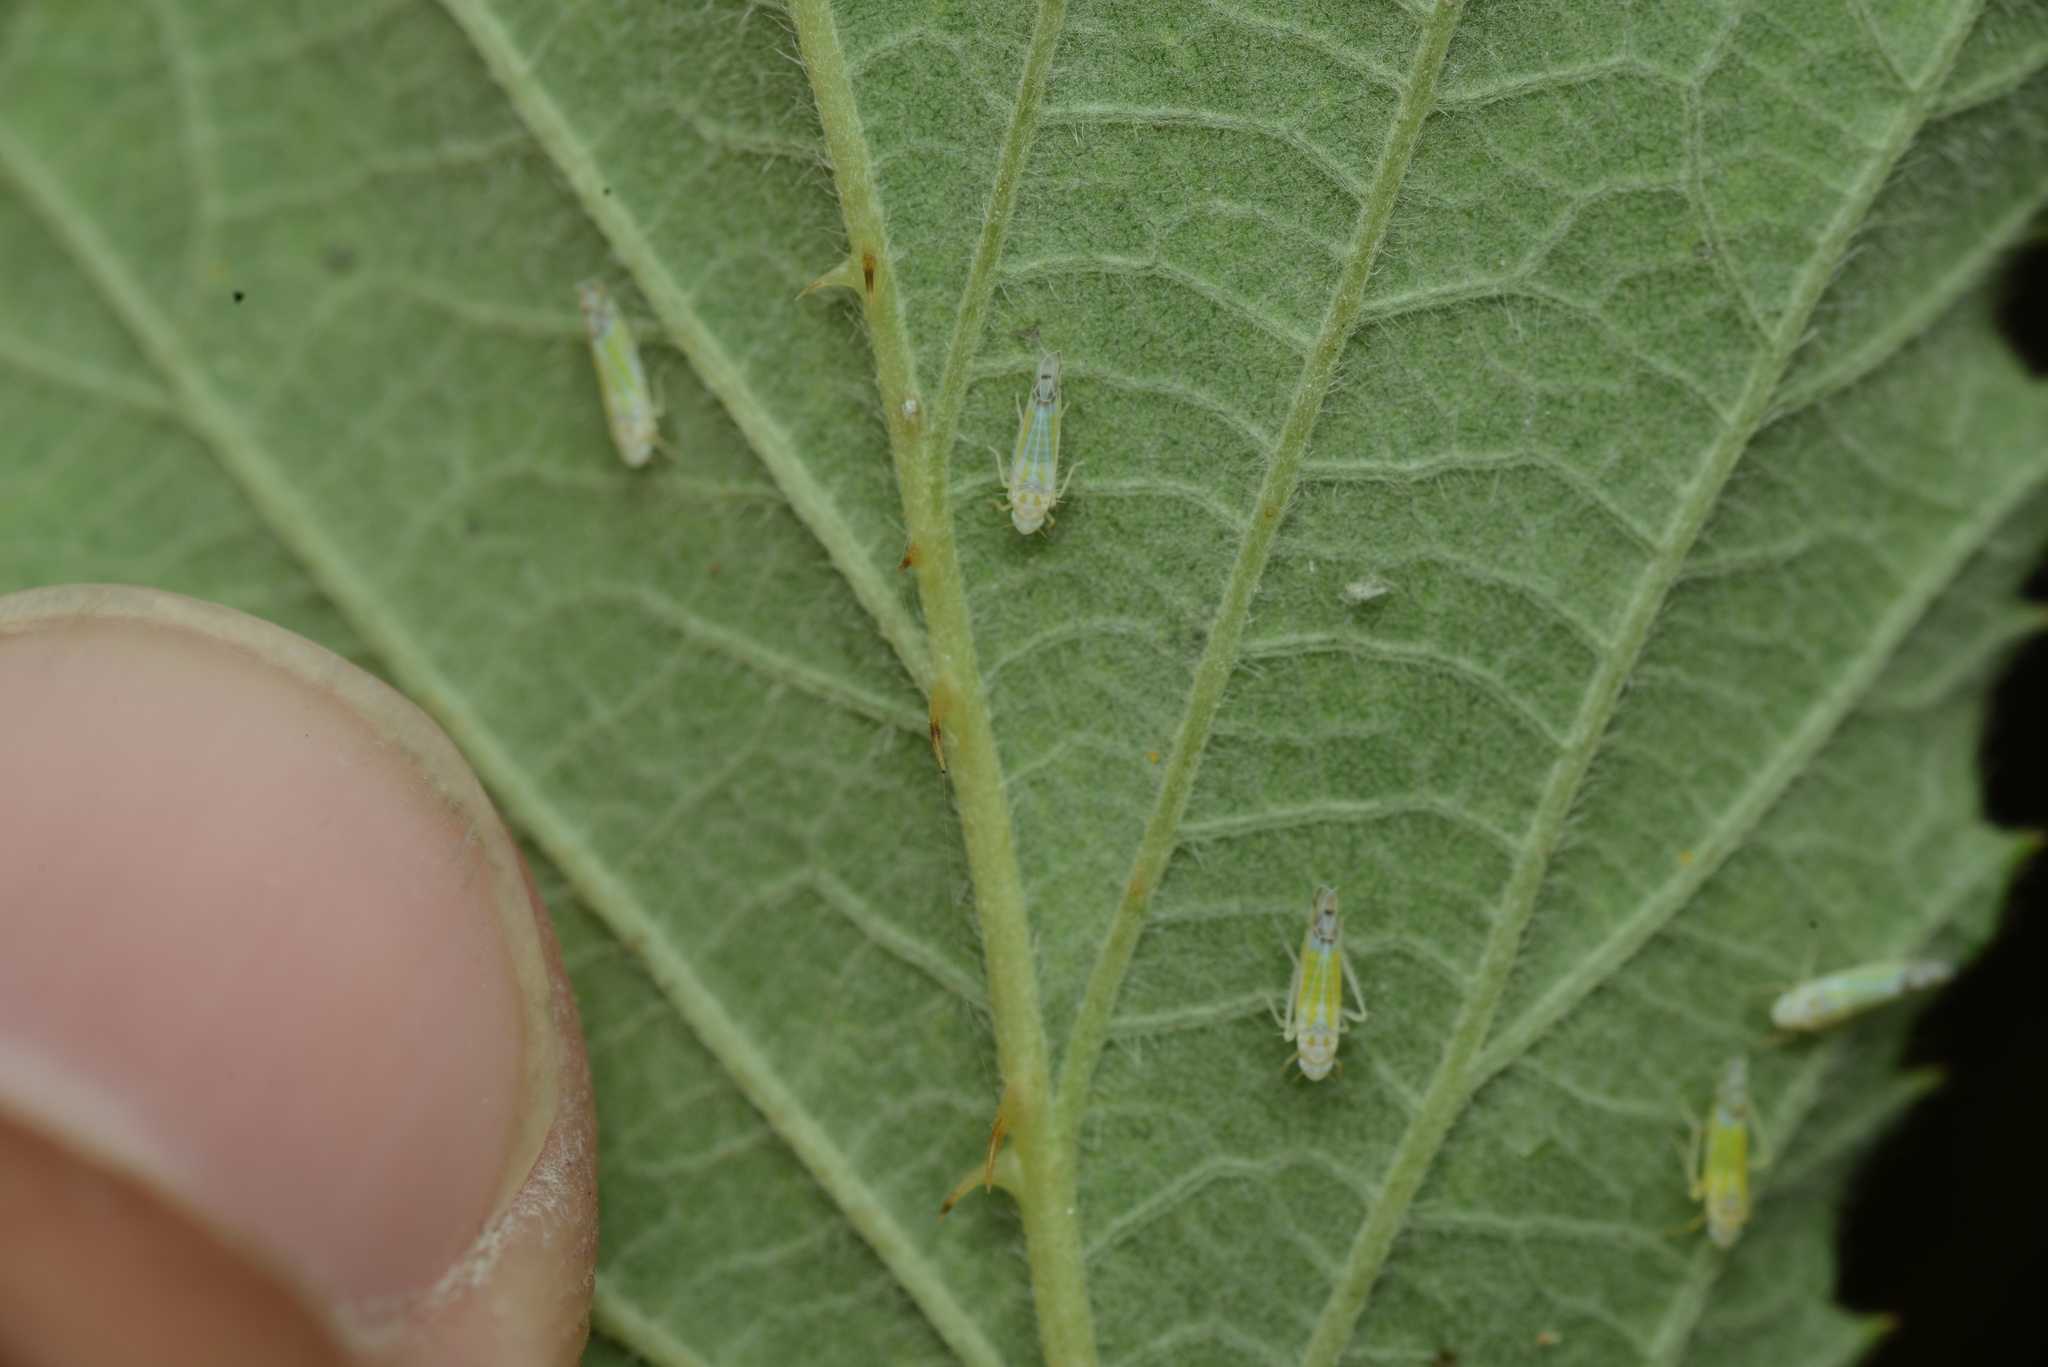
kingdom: Animalia
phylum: Arthropoda
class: Insecta
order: Hemiptera
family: Cicadellidae
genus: Ribautiana
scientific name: Ribautiana tenerrima
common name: Bramble leafhopper
